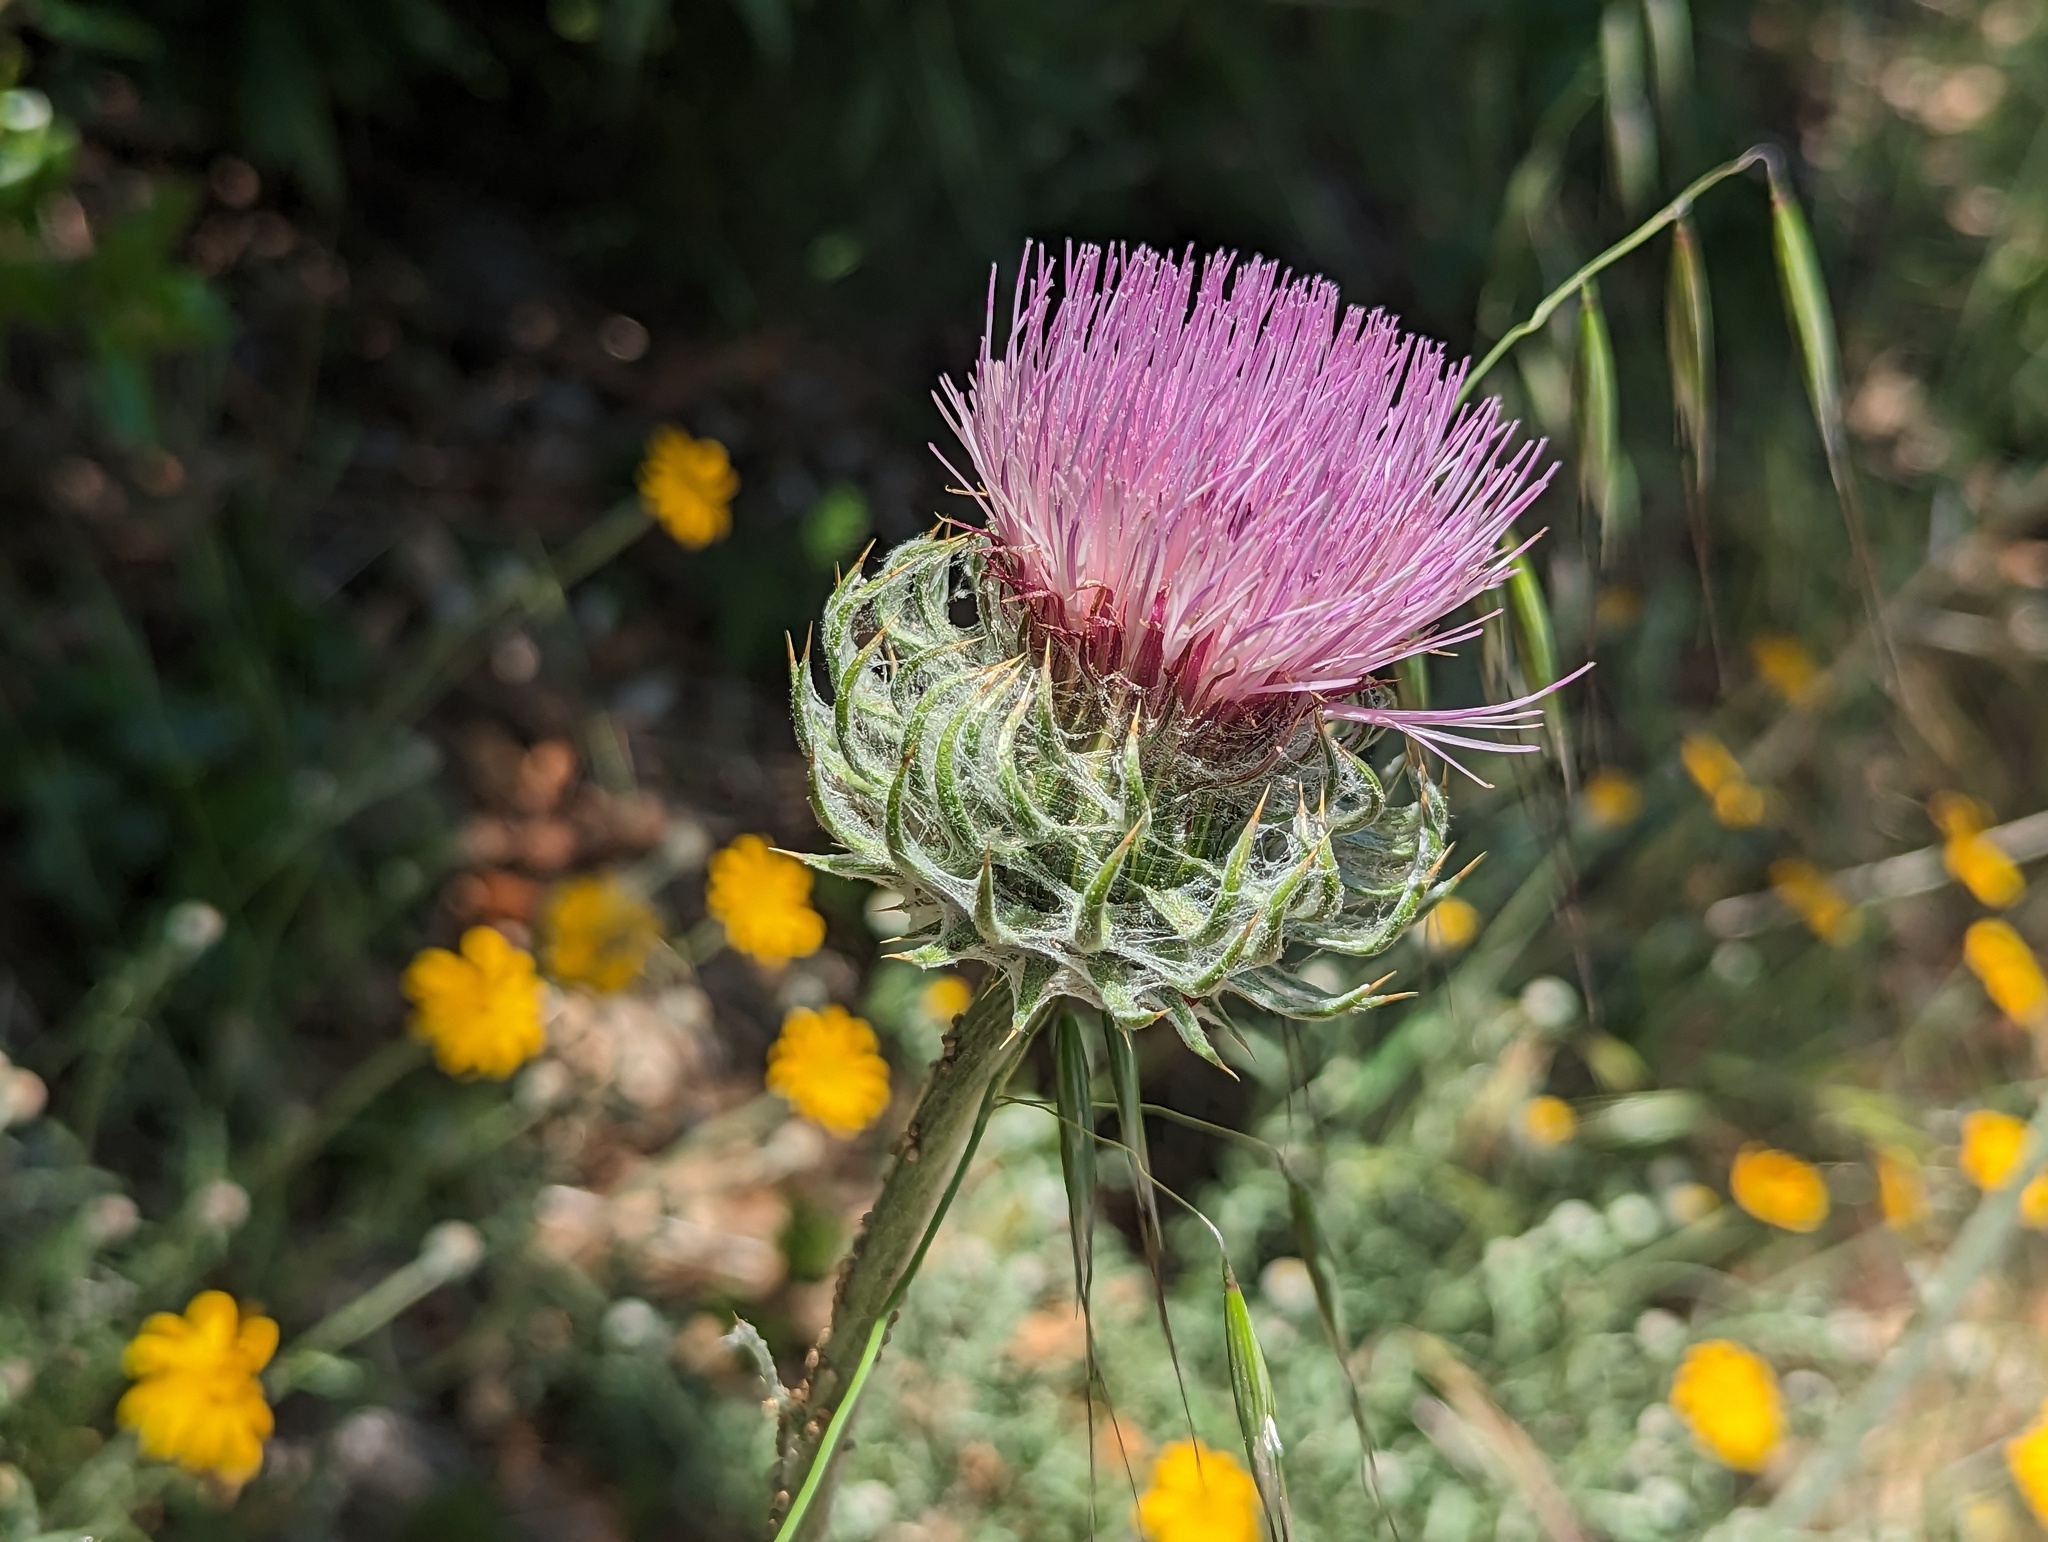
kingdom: Plantae
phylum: Tracheophyta
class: Magnoliopsida
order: Asterales
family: Asteraceae
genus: Cirsium
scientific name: Cirsium occidentale
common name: Western thistle
